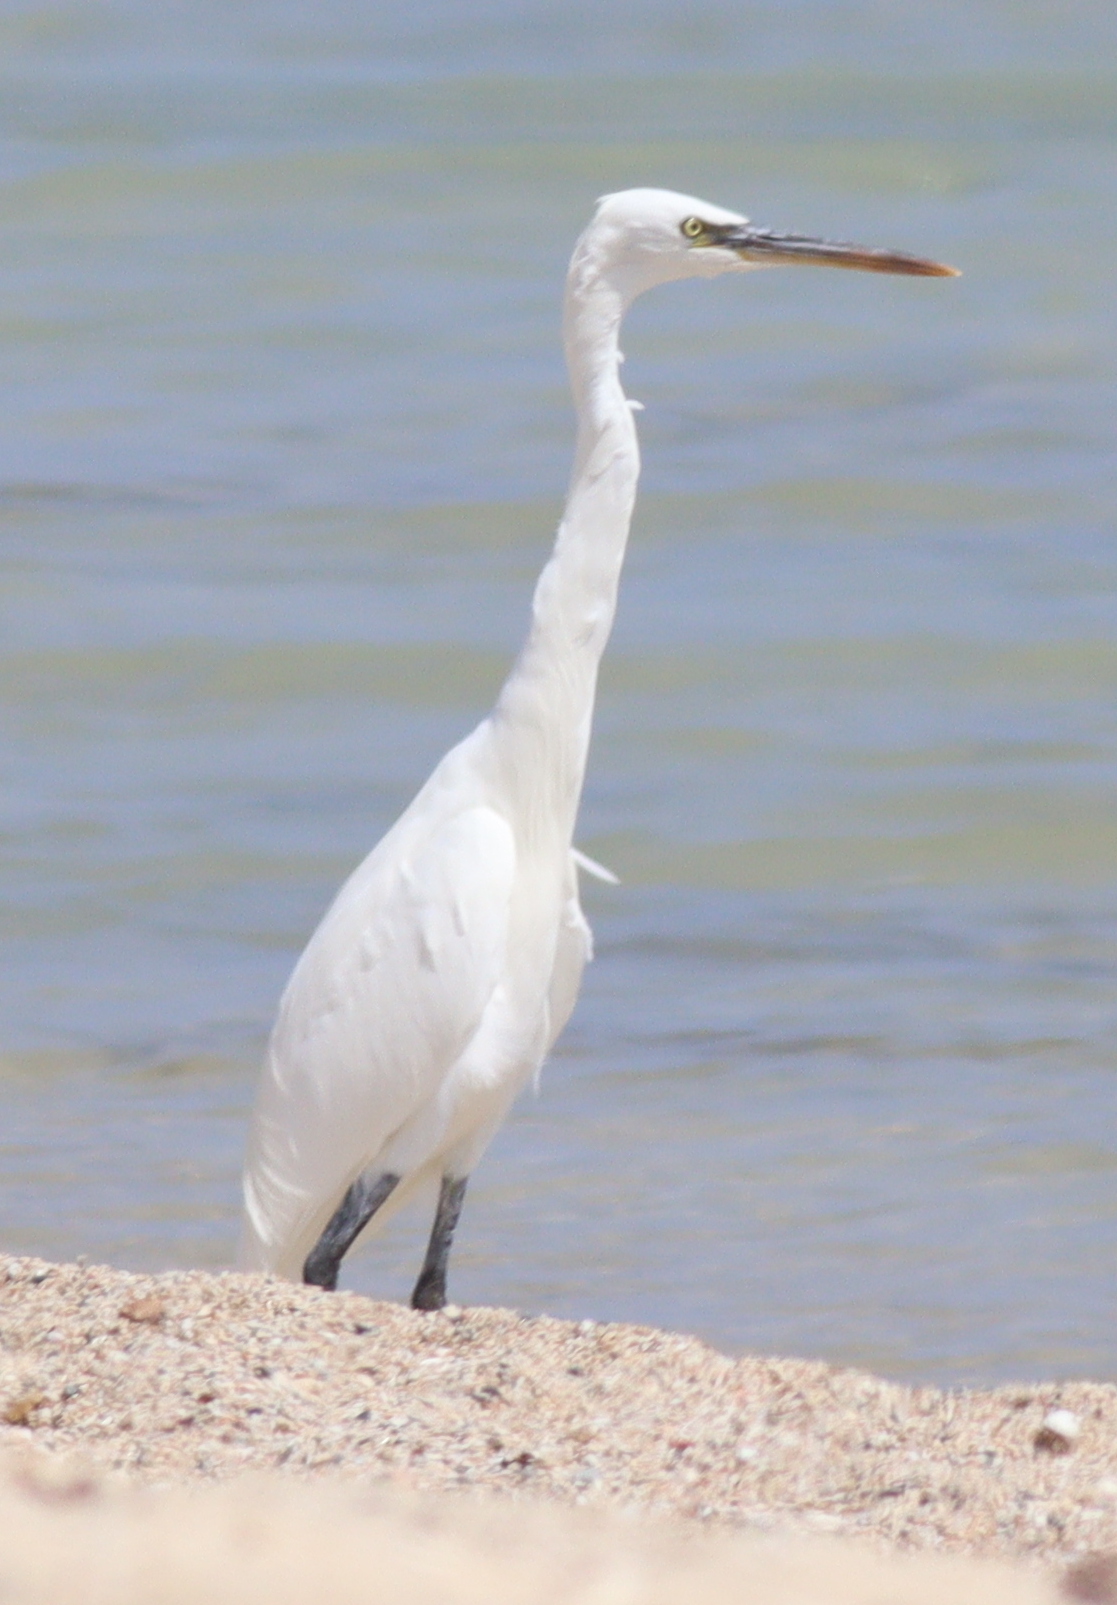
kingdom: Animalia
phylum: Chordata
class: Aves
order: Pelecaniformes
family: Ardeidae
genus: Egretta
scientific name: Egretta gularis
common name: Western reef-heron
